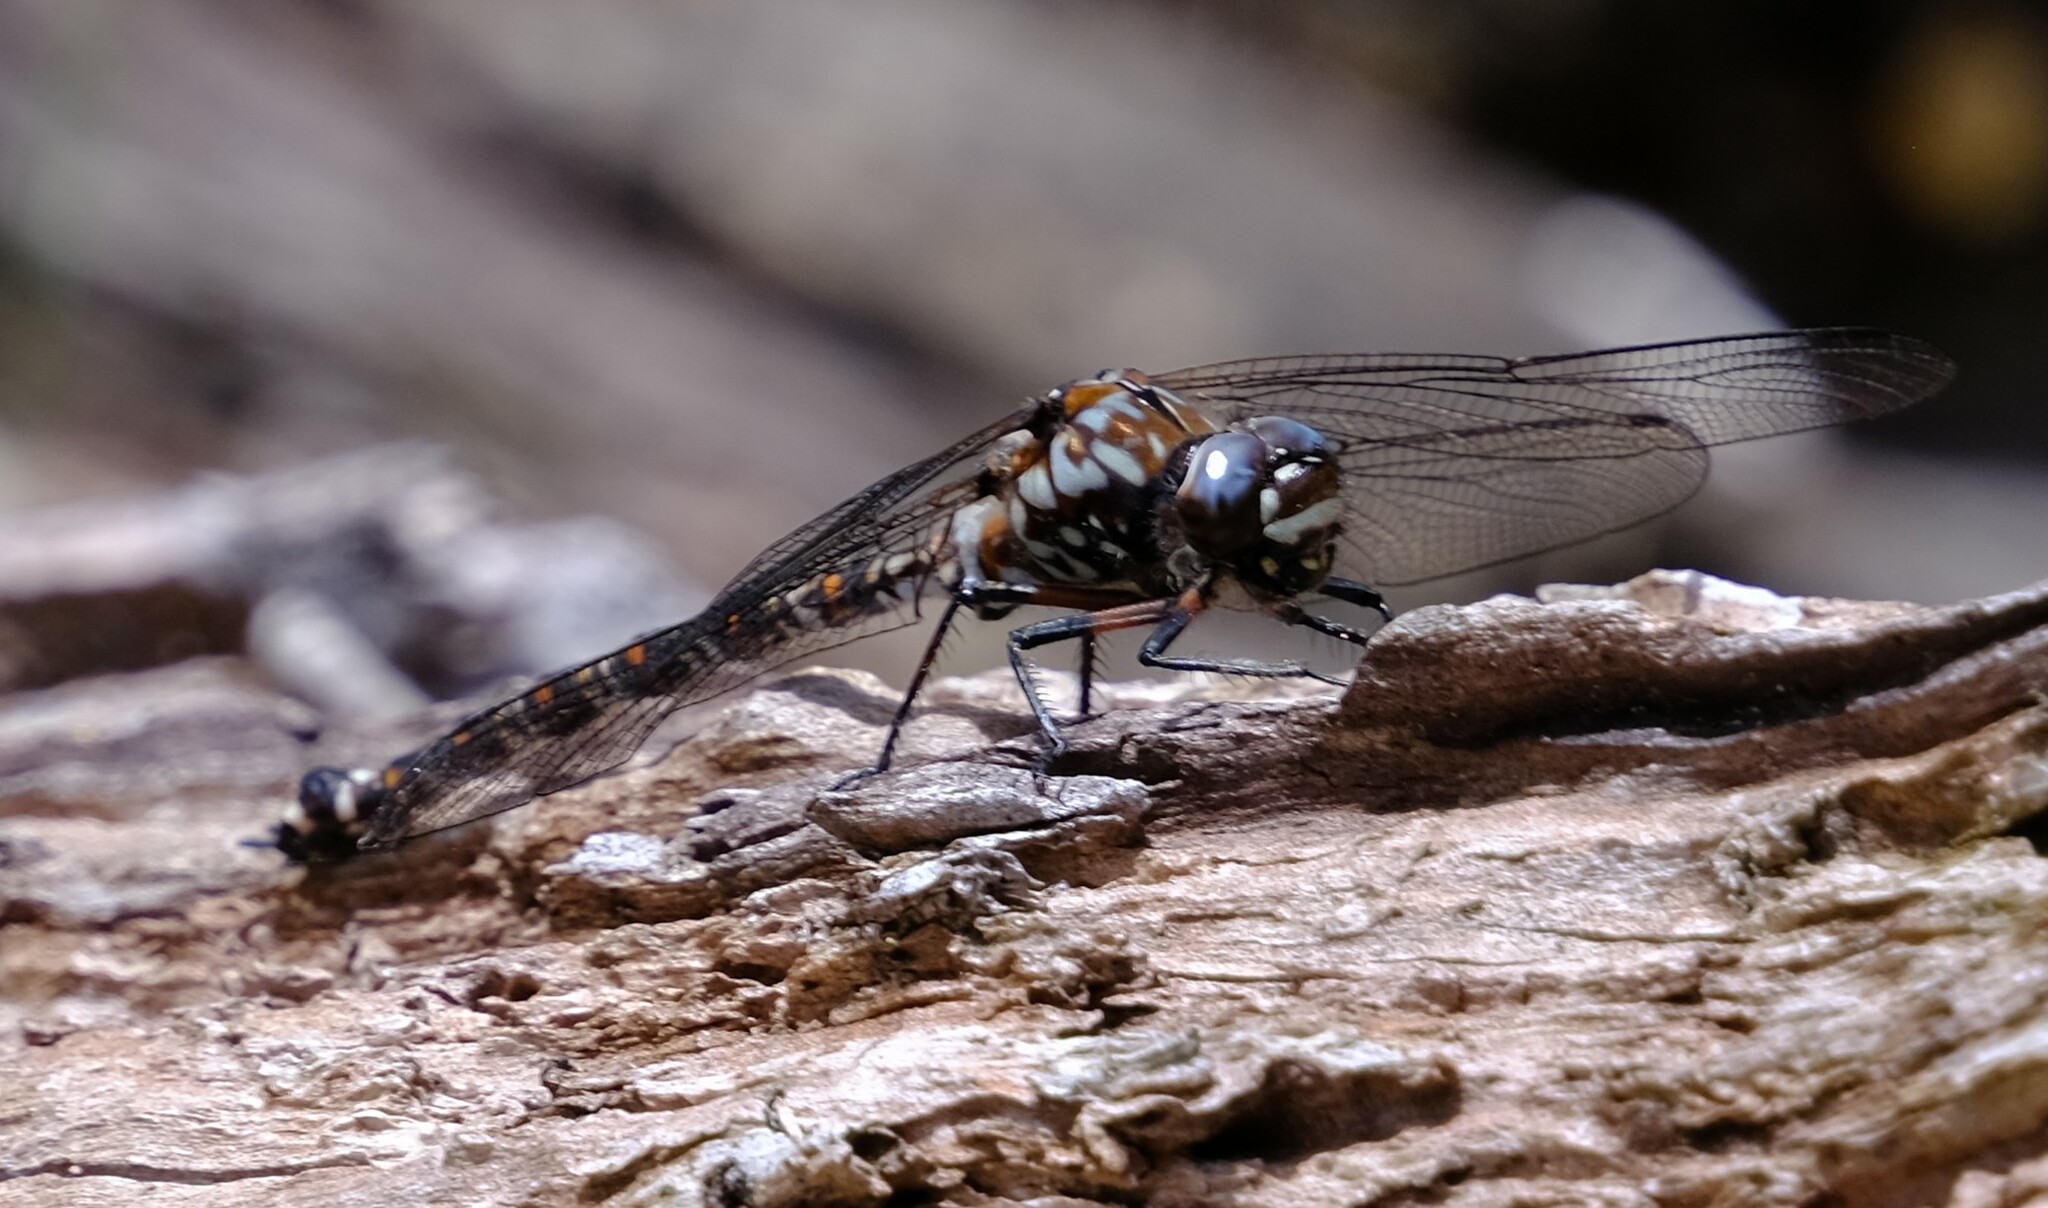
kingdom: Animalia
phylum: Arthropoda
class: Insecta
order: Odonata
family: Aeshnidae
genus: Austroaeschna
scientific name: Austroaeschna hardyi
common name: Lesser tasmanian darner
